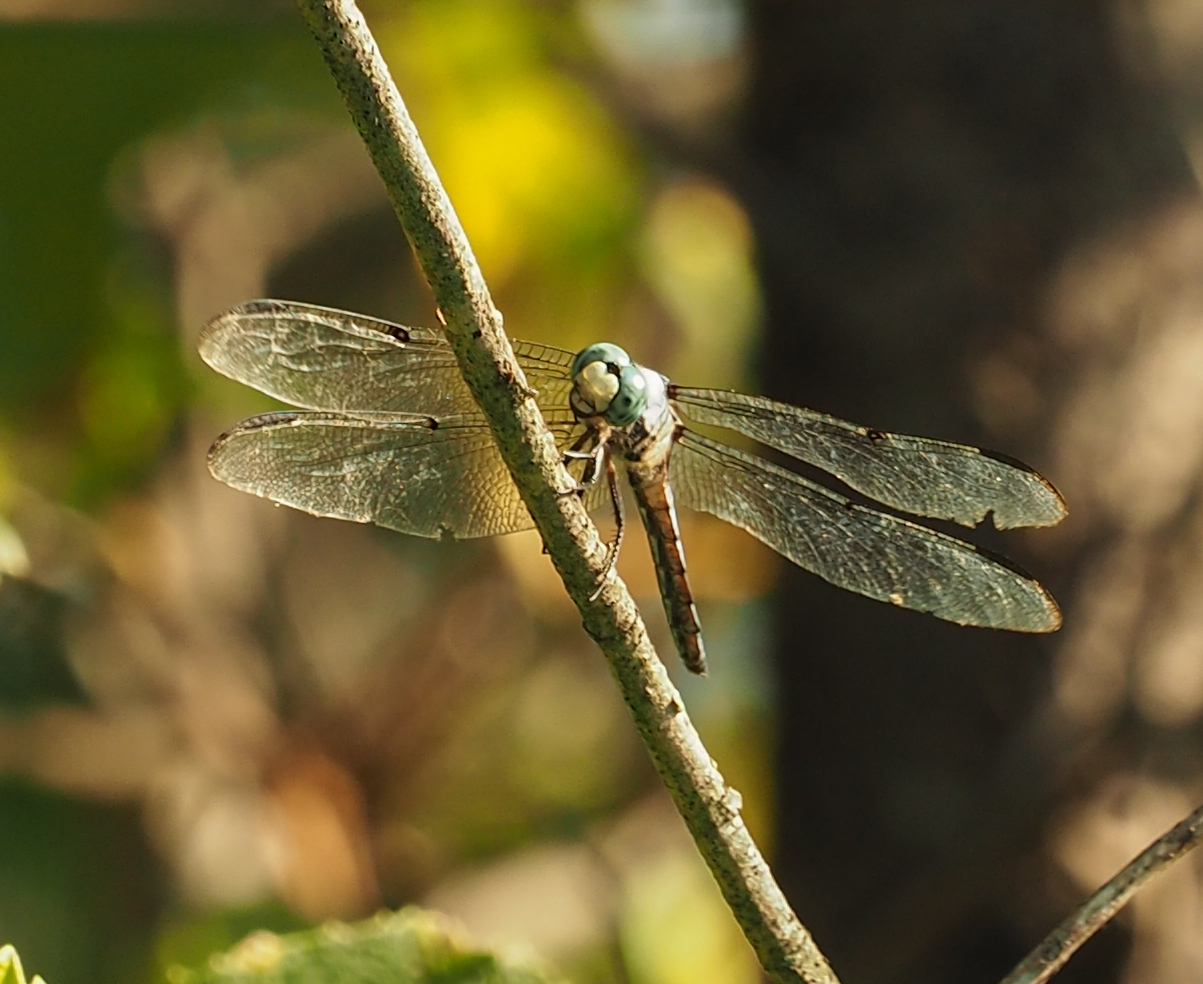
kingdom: Animalia
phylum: Arthropoda
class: Insecta
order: Odonata
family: Libellulidae
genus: Libellula
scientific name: Libellula vibrans
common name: Great blue skimmer
